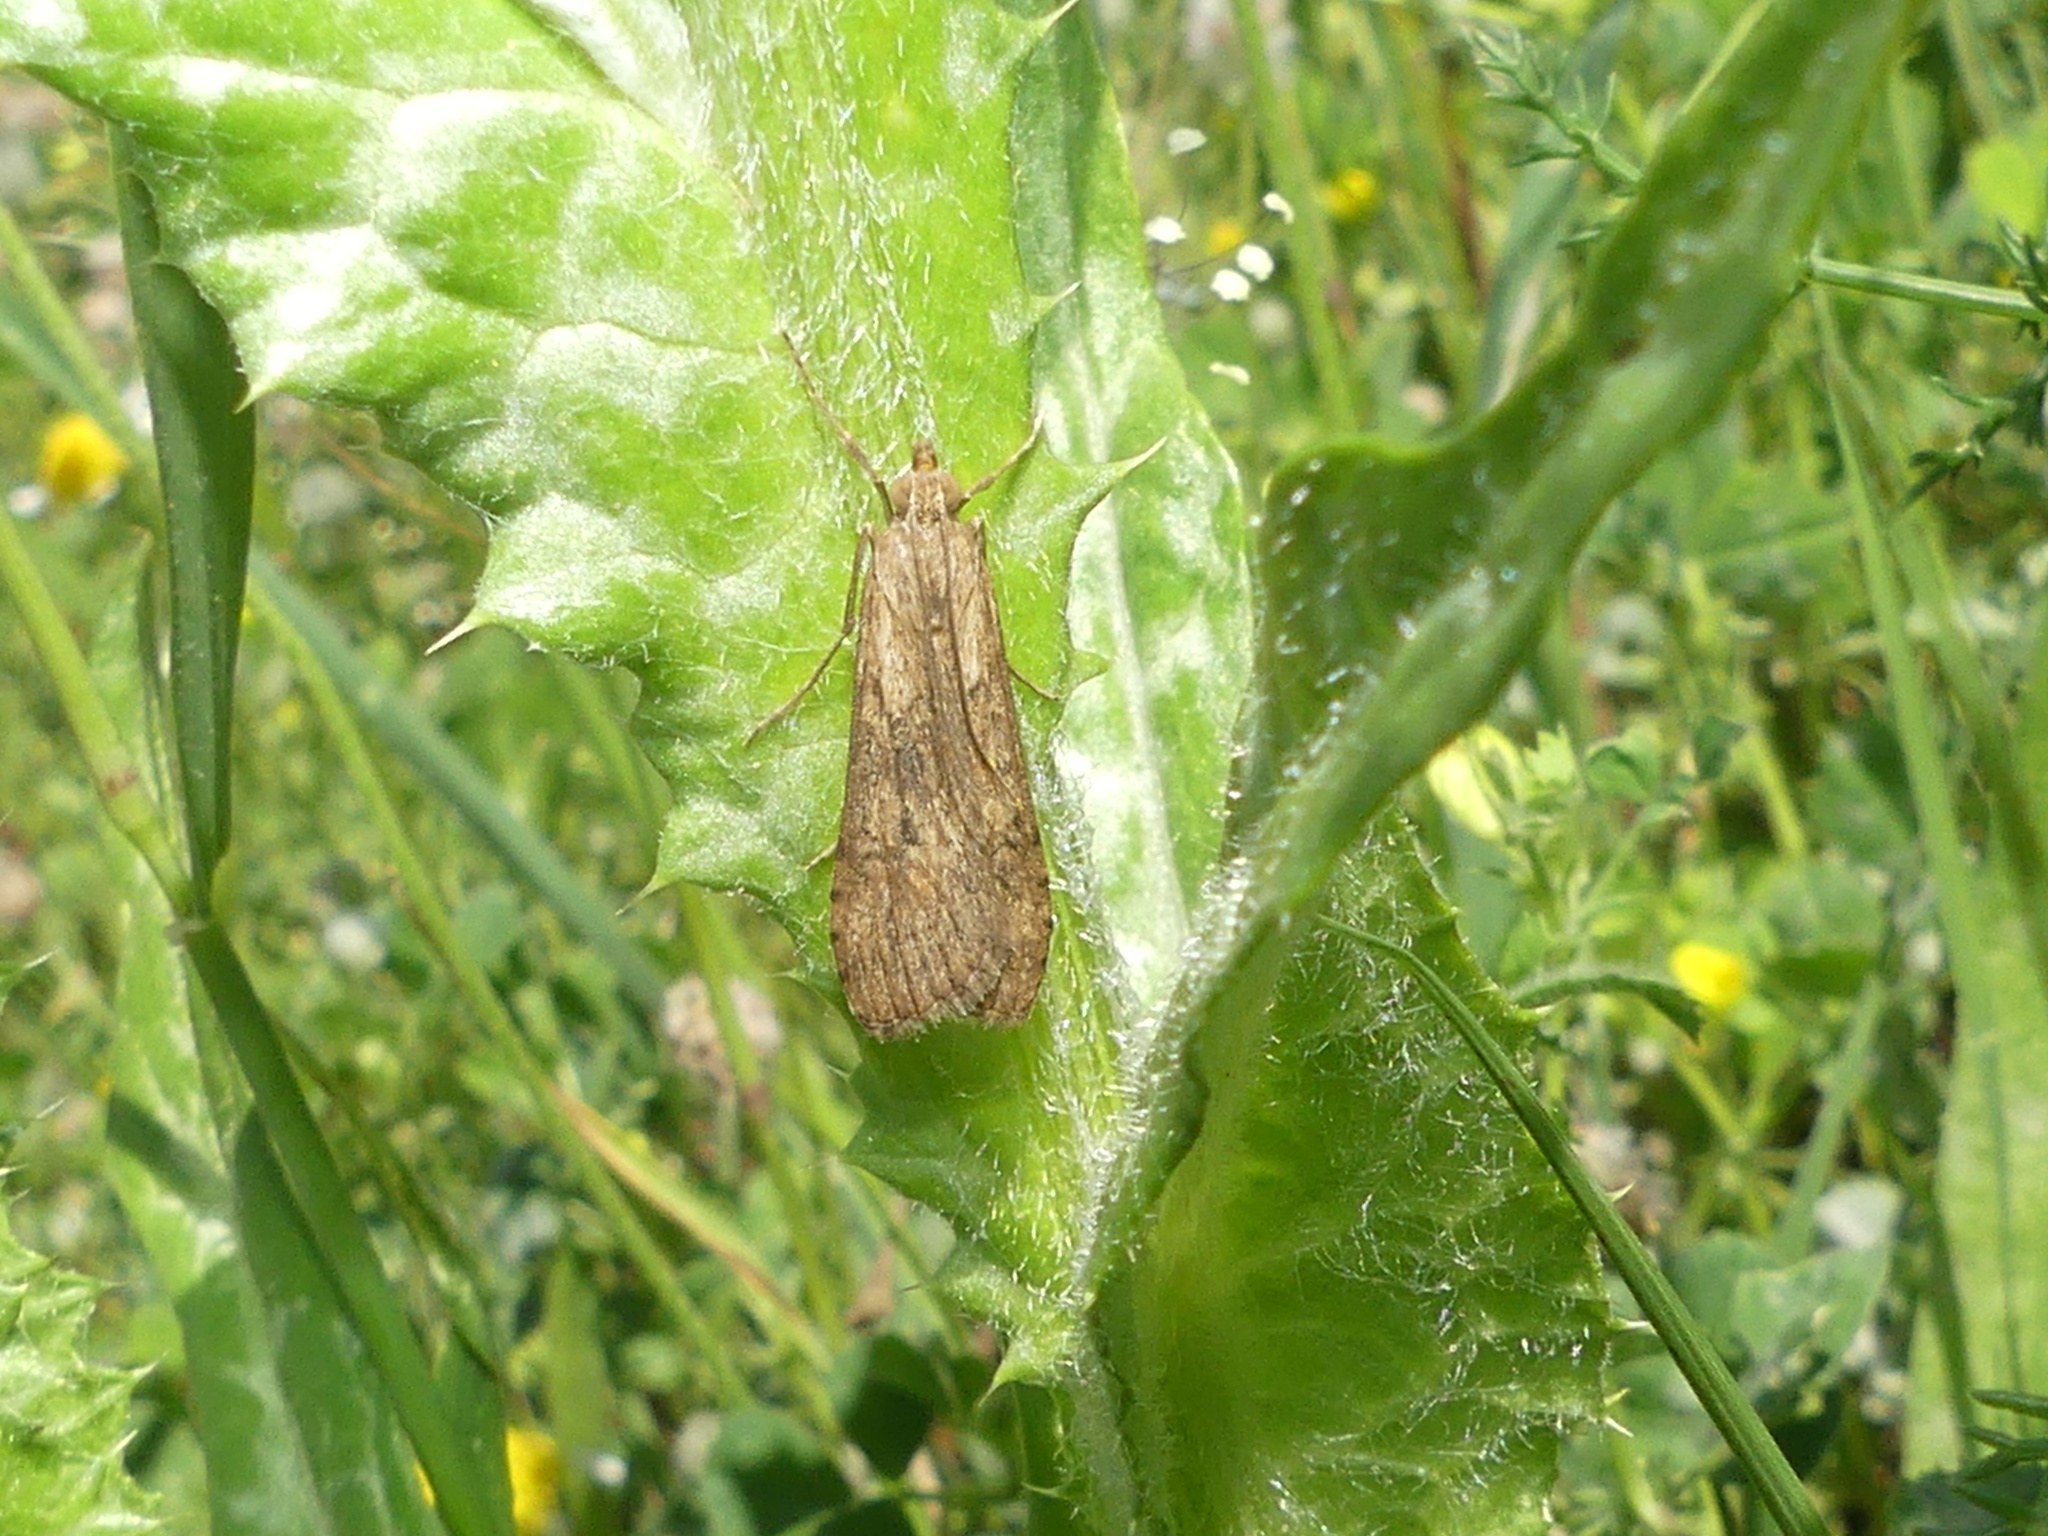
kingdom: Animalia
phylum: Arthropoda
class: Insecta
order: Lepidoptera
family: Crambidae
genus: Nomophila
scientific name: Nomophila noctuella
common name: Rush veneer
